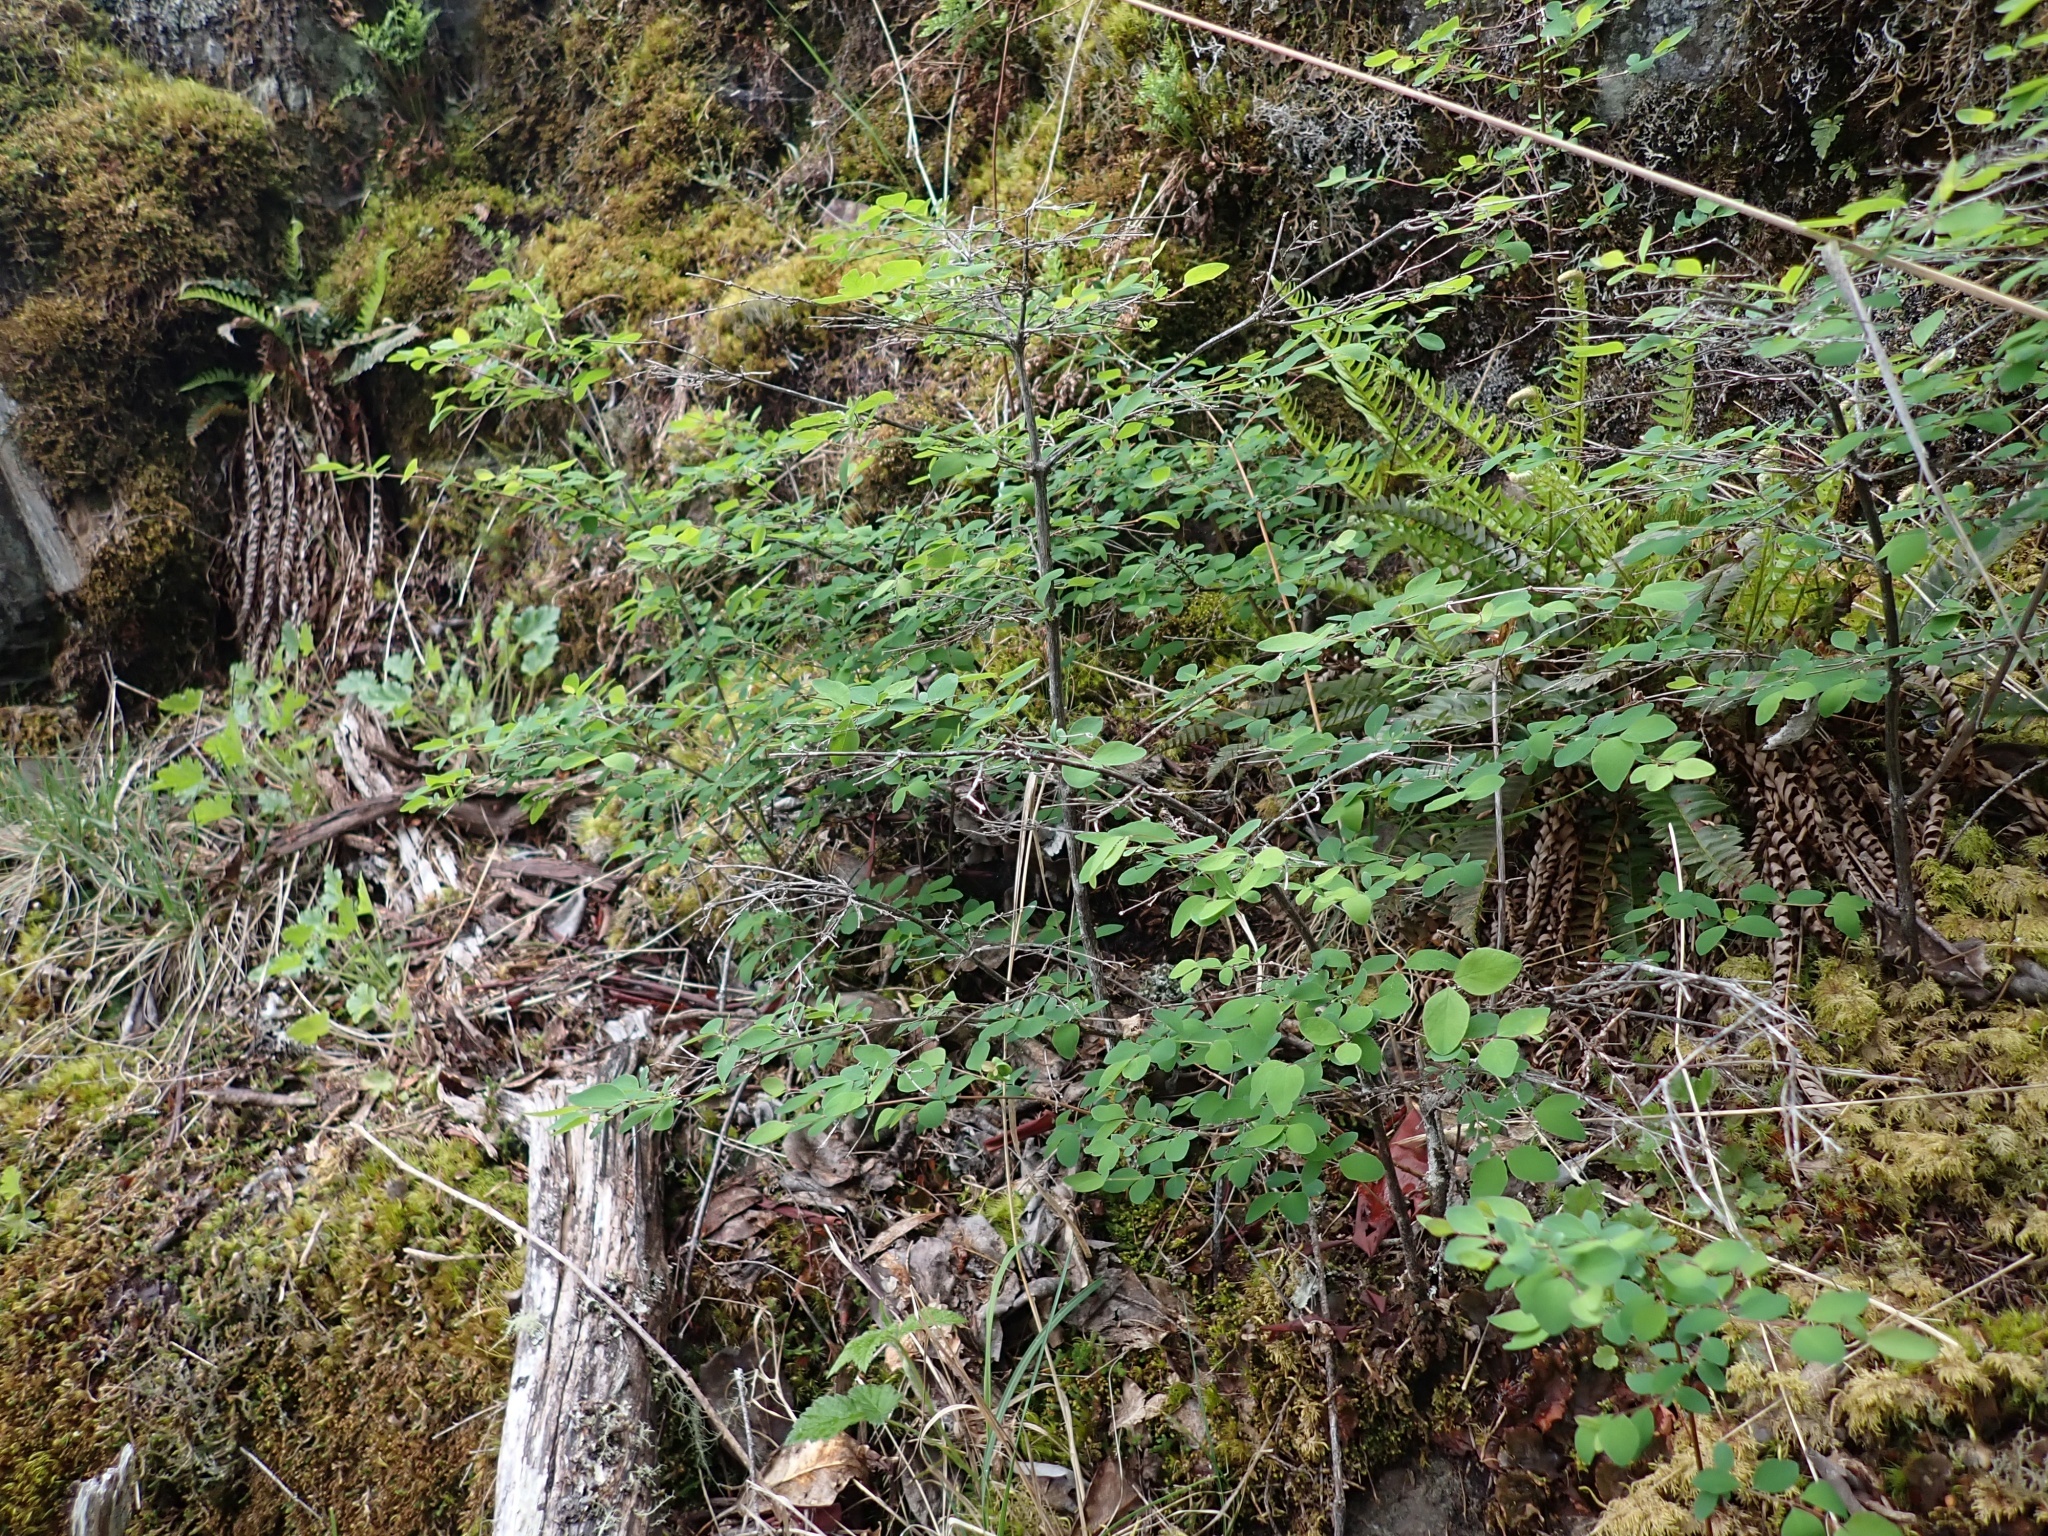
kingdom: Plantae
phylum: Tracheophyta
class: Magnoliopsida
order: Dipsacales
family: Caprifoliaceae
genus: Symphoricarpos
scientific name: Symphoricarpos albus
